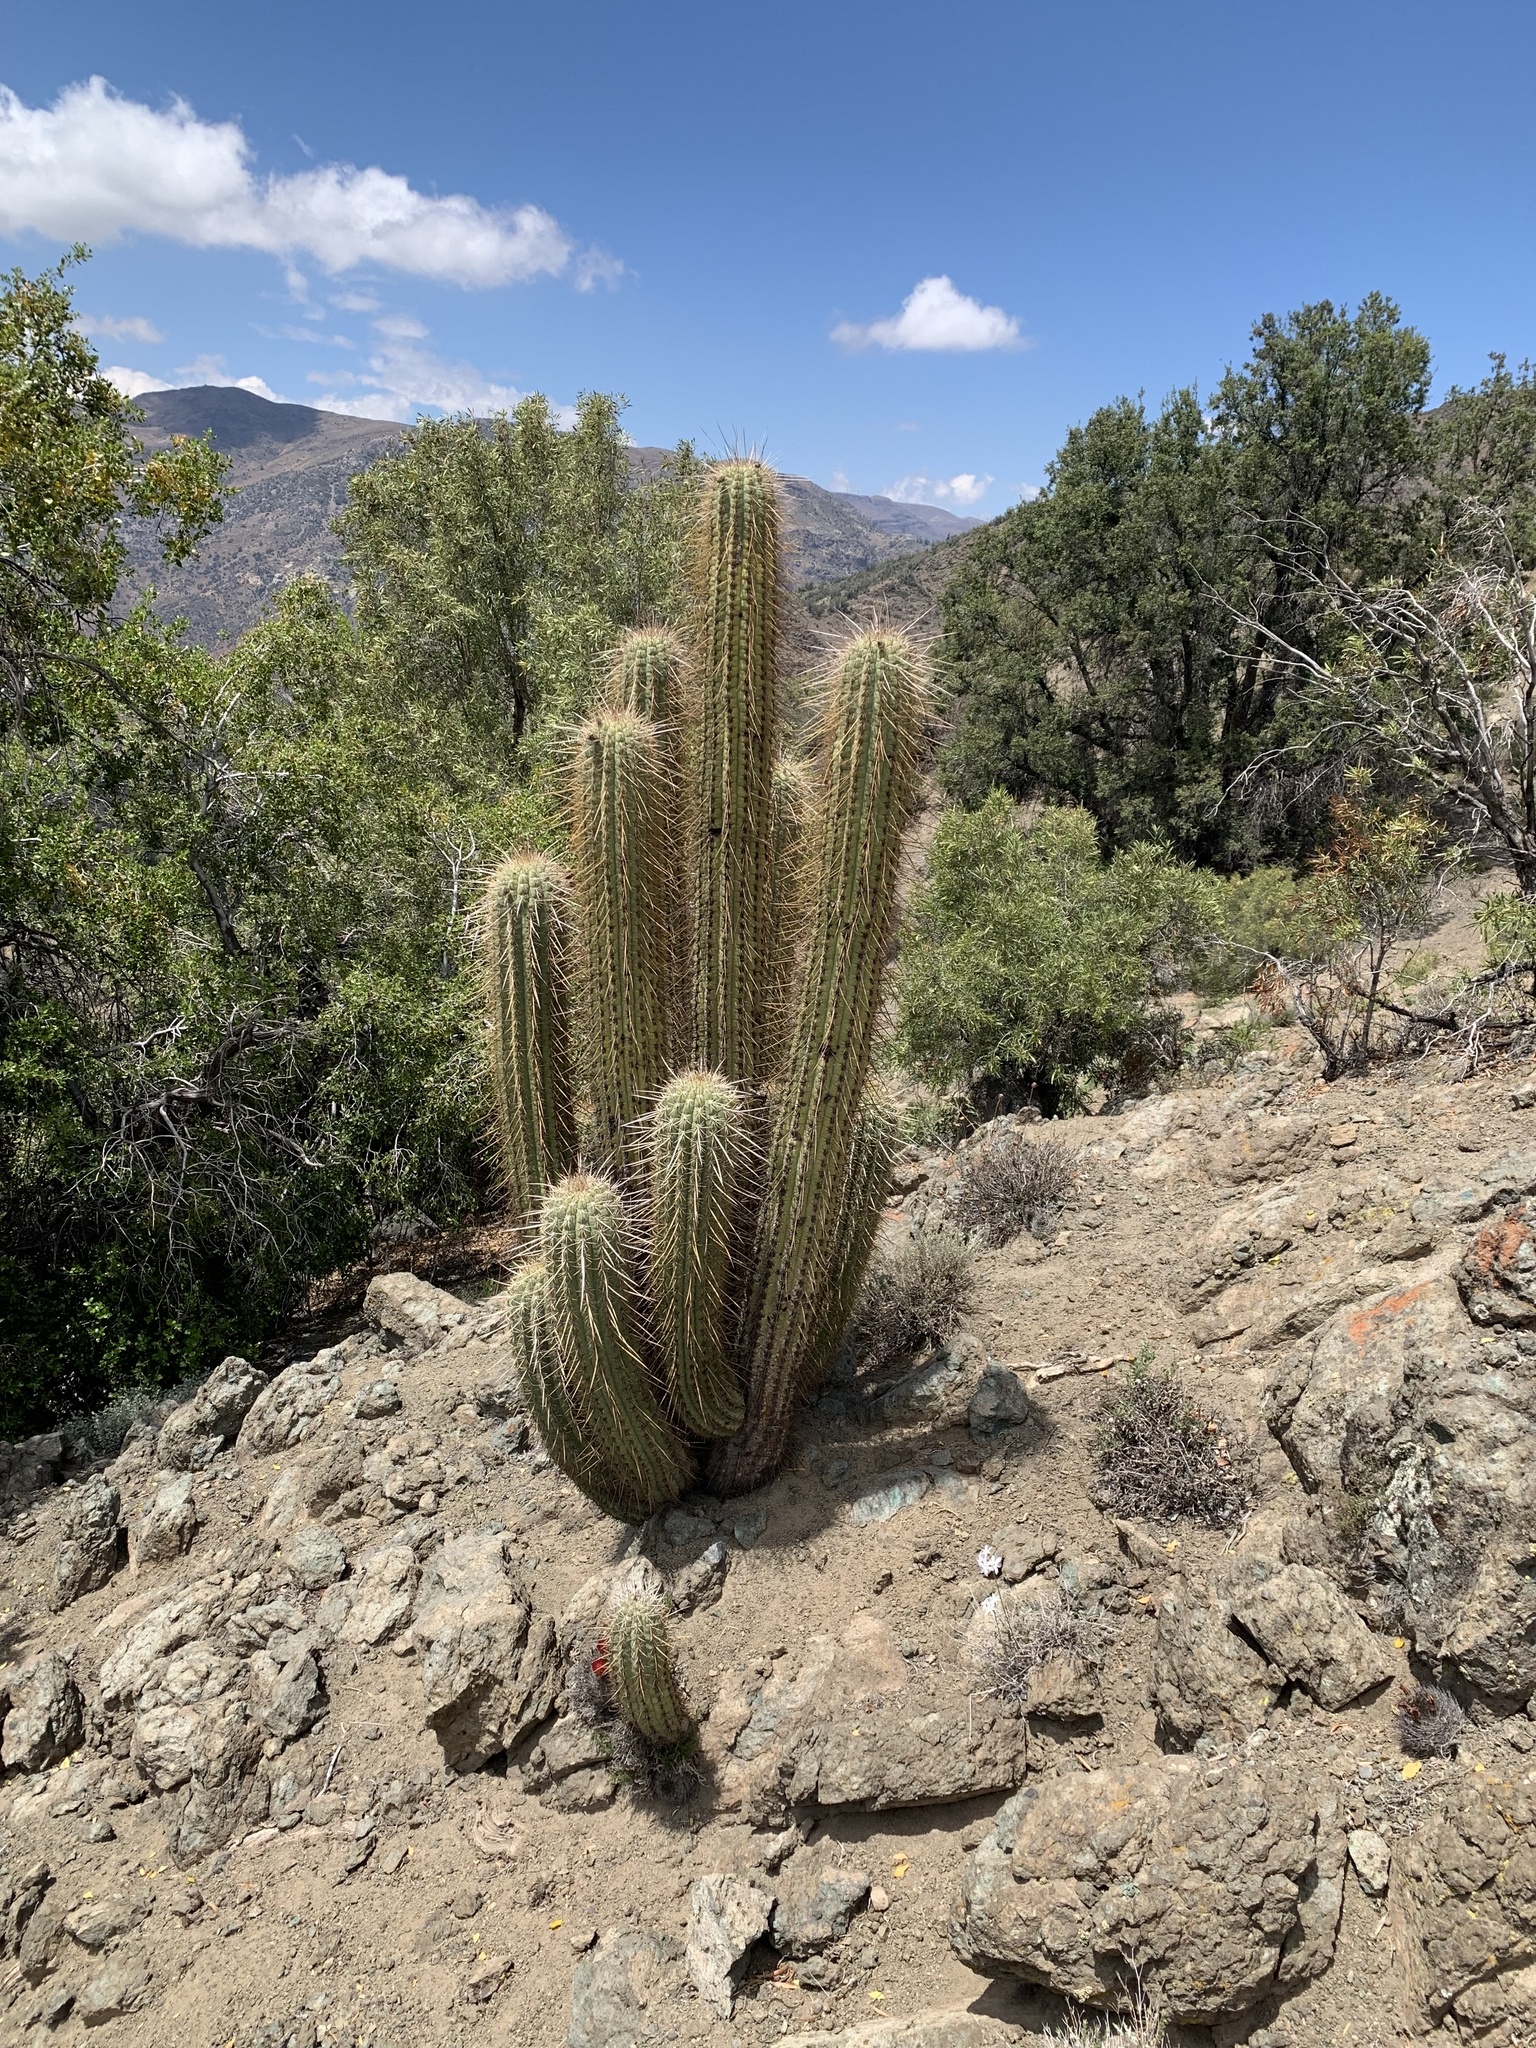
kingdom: Plantae
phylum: Tracheophyta
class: Magnoliopsida
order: Caryophyllales
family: Cactaceae
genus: Leucostele
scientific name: Leucostele chiloensis
